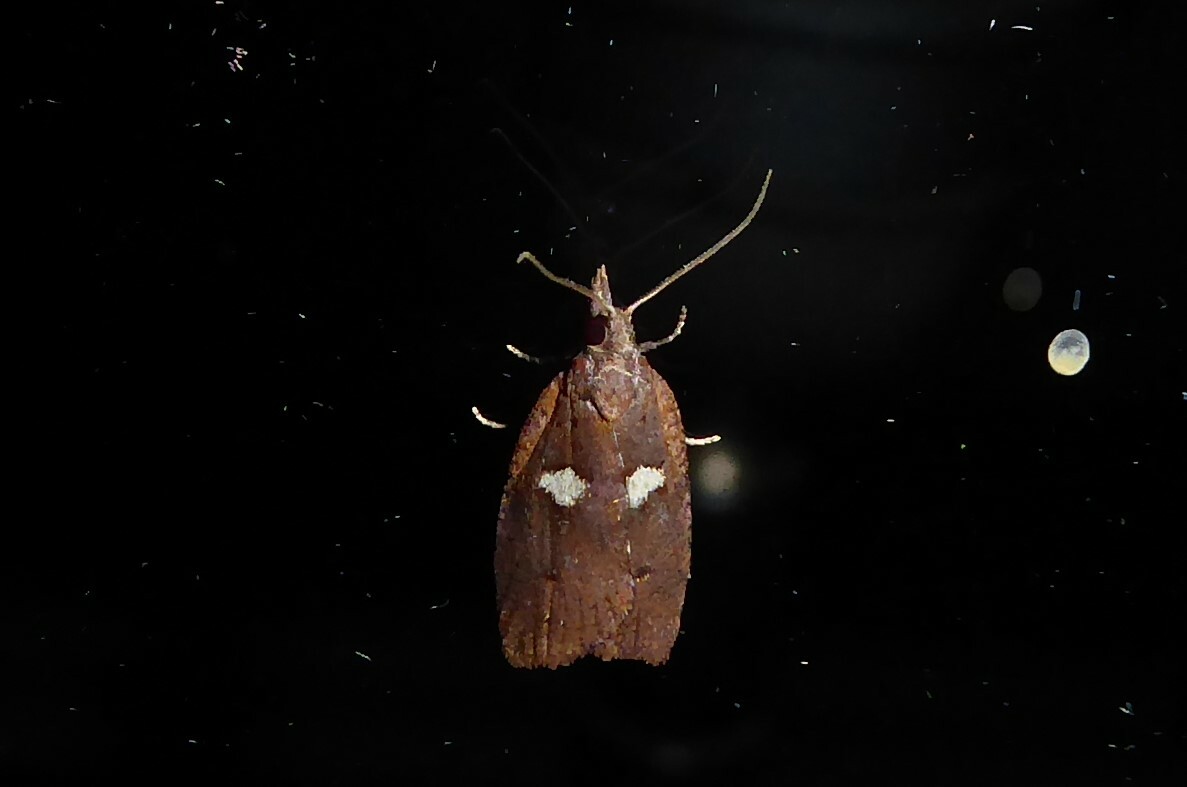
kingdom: Animalia
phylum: Arthropoda
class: Insecta
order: Lepidoptera
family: Tortricidae
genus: Planotortrix
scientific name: Planotortrix notophaea
